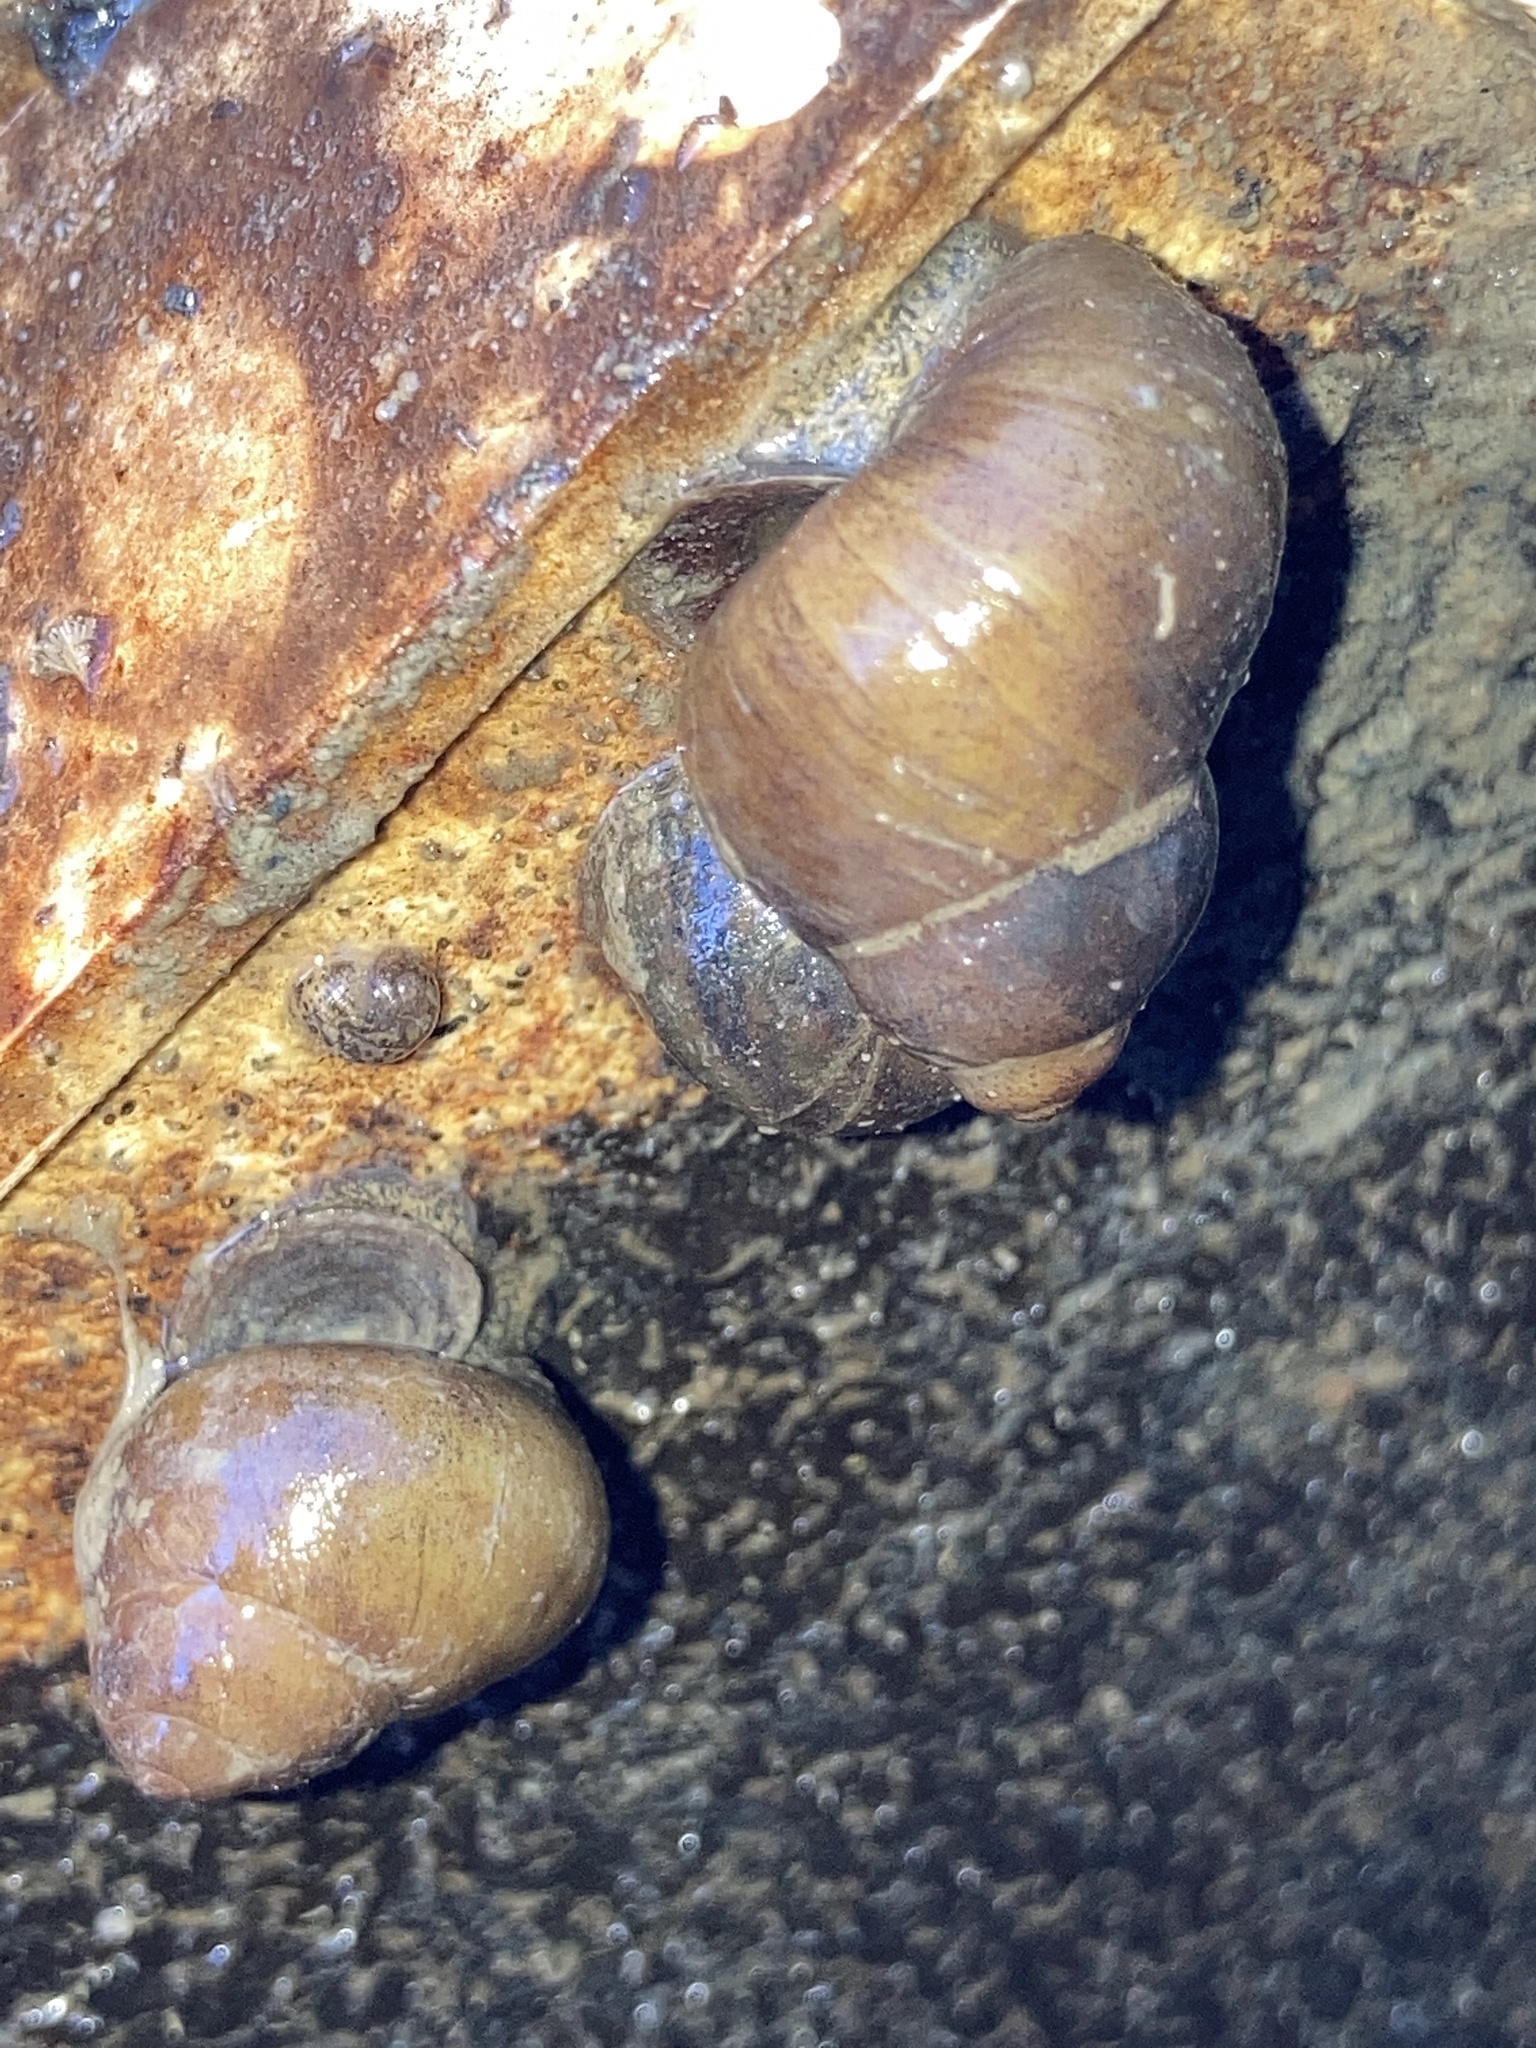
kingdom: Animalia
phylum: Mollusca
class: Gastropoda
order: Architaenioglossa
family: Viviparidae
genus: Cipangopaludina
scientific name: Cipangopaludina chinensis
